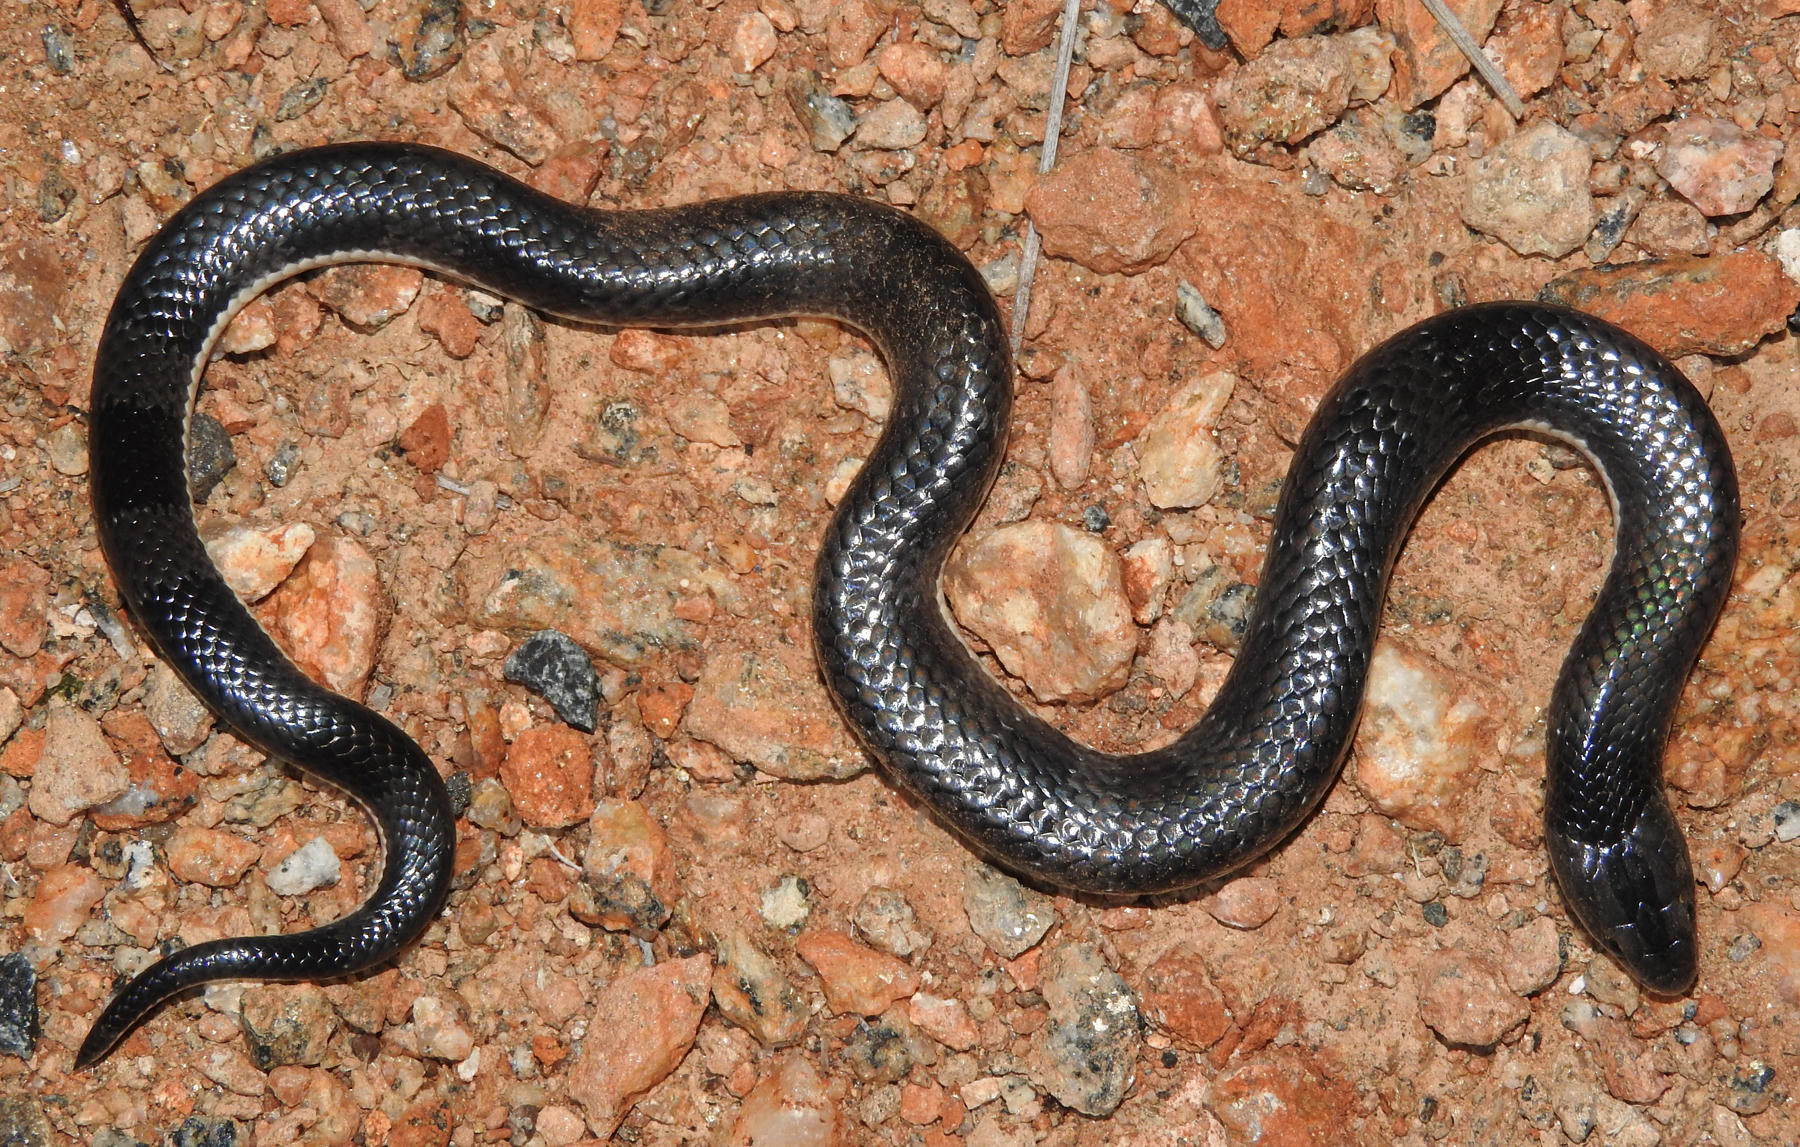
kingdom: Animalia
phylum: Chordata
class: Squamata
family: Elapidae
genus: Elapsoidea
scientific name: Elapsoidea sundevallii
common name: Sundevall's garter snake
